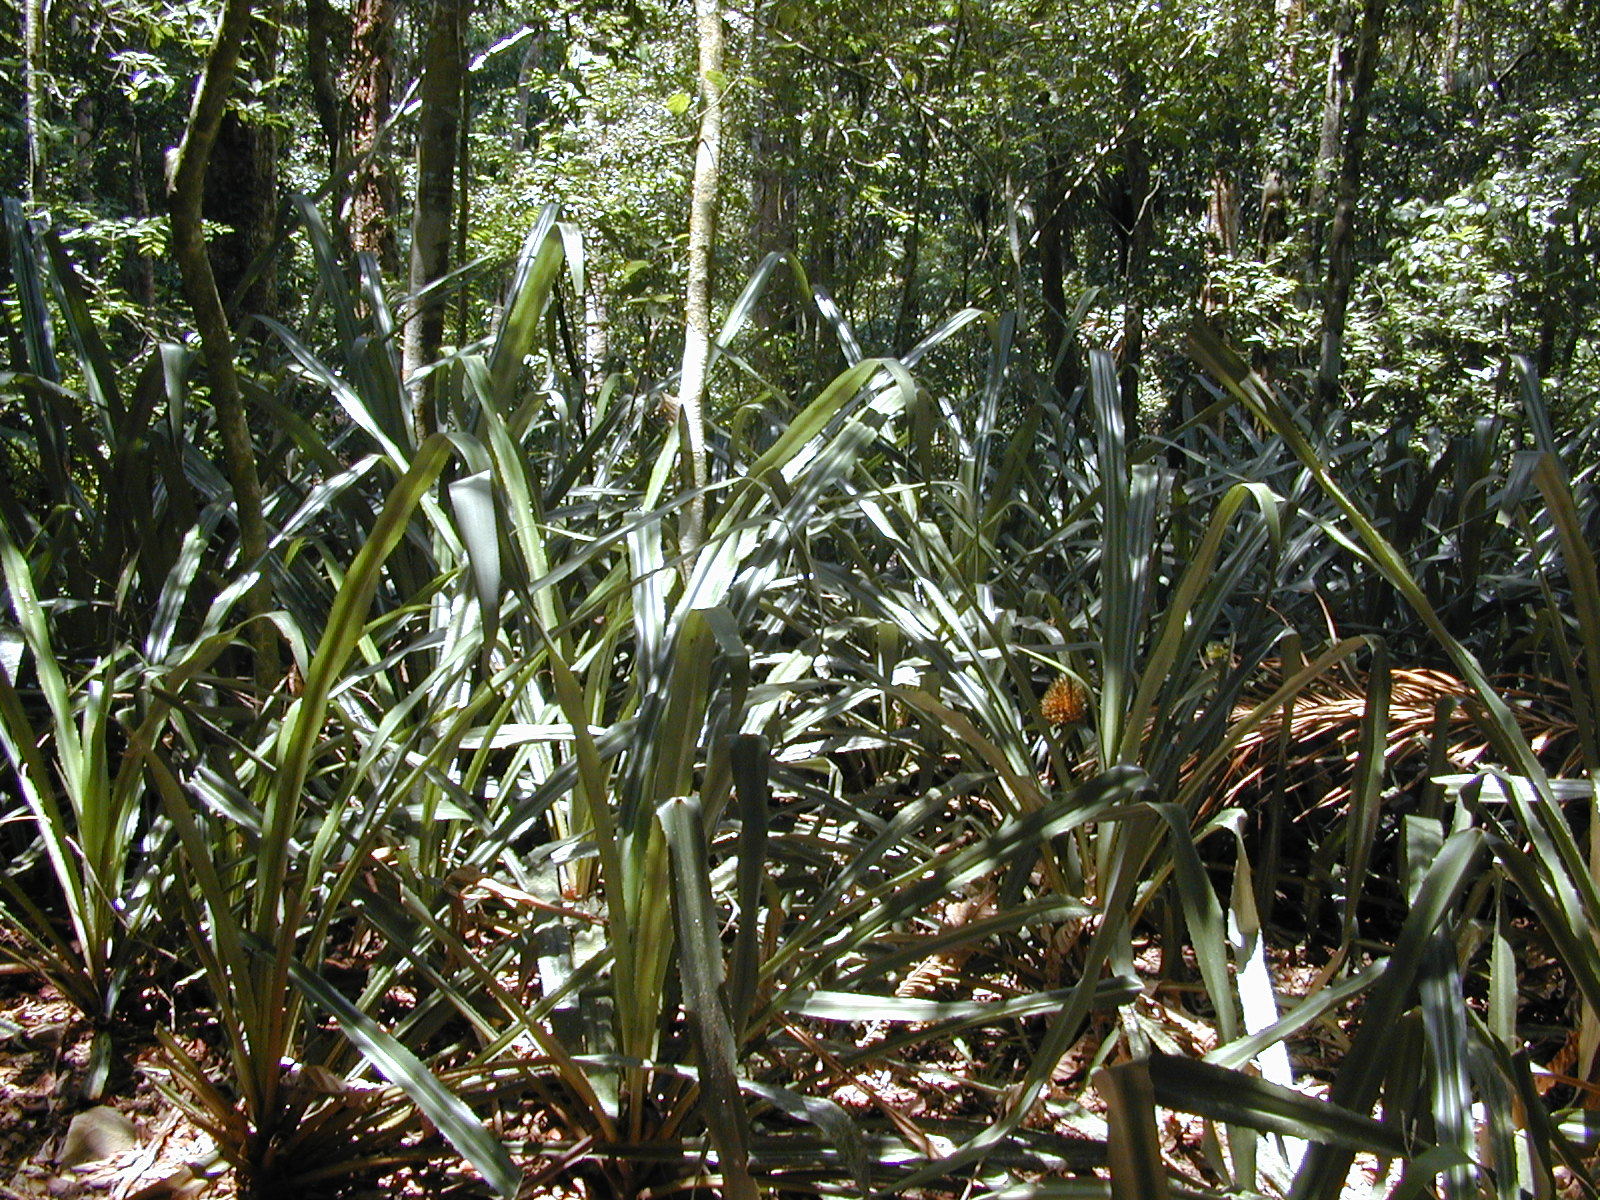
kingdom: Plantae
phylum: Tracheophyta
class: Liliopsida
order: Poales
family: Bromeliaceae
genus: Aechmea
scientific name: Aechmea magdalenae
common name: Arghan
